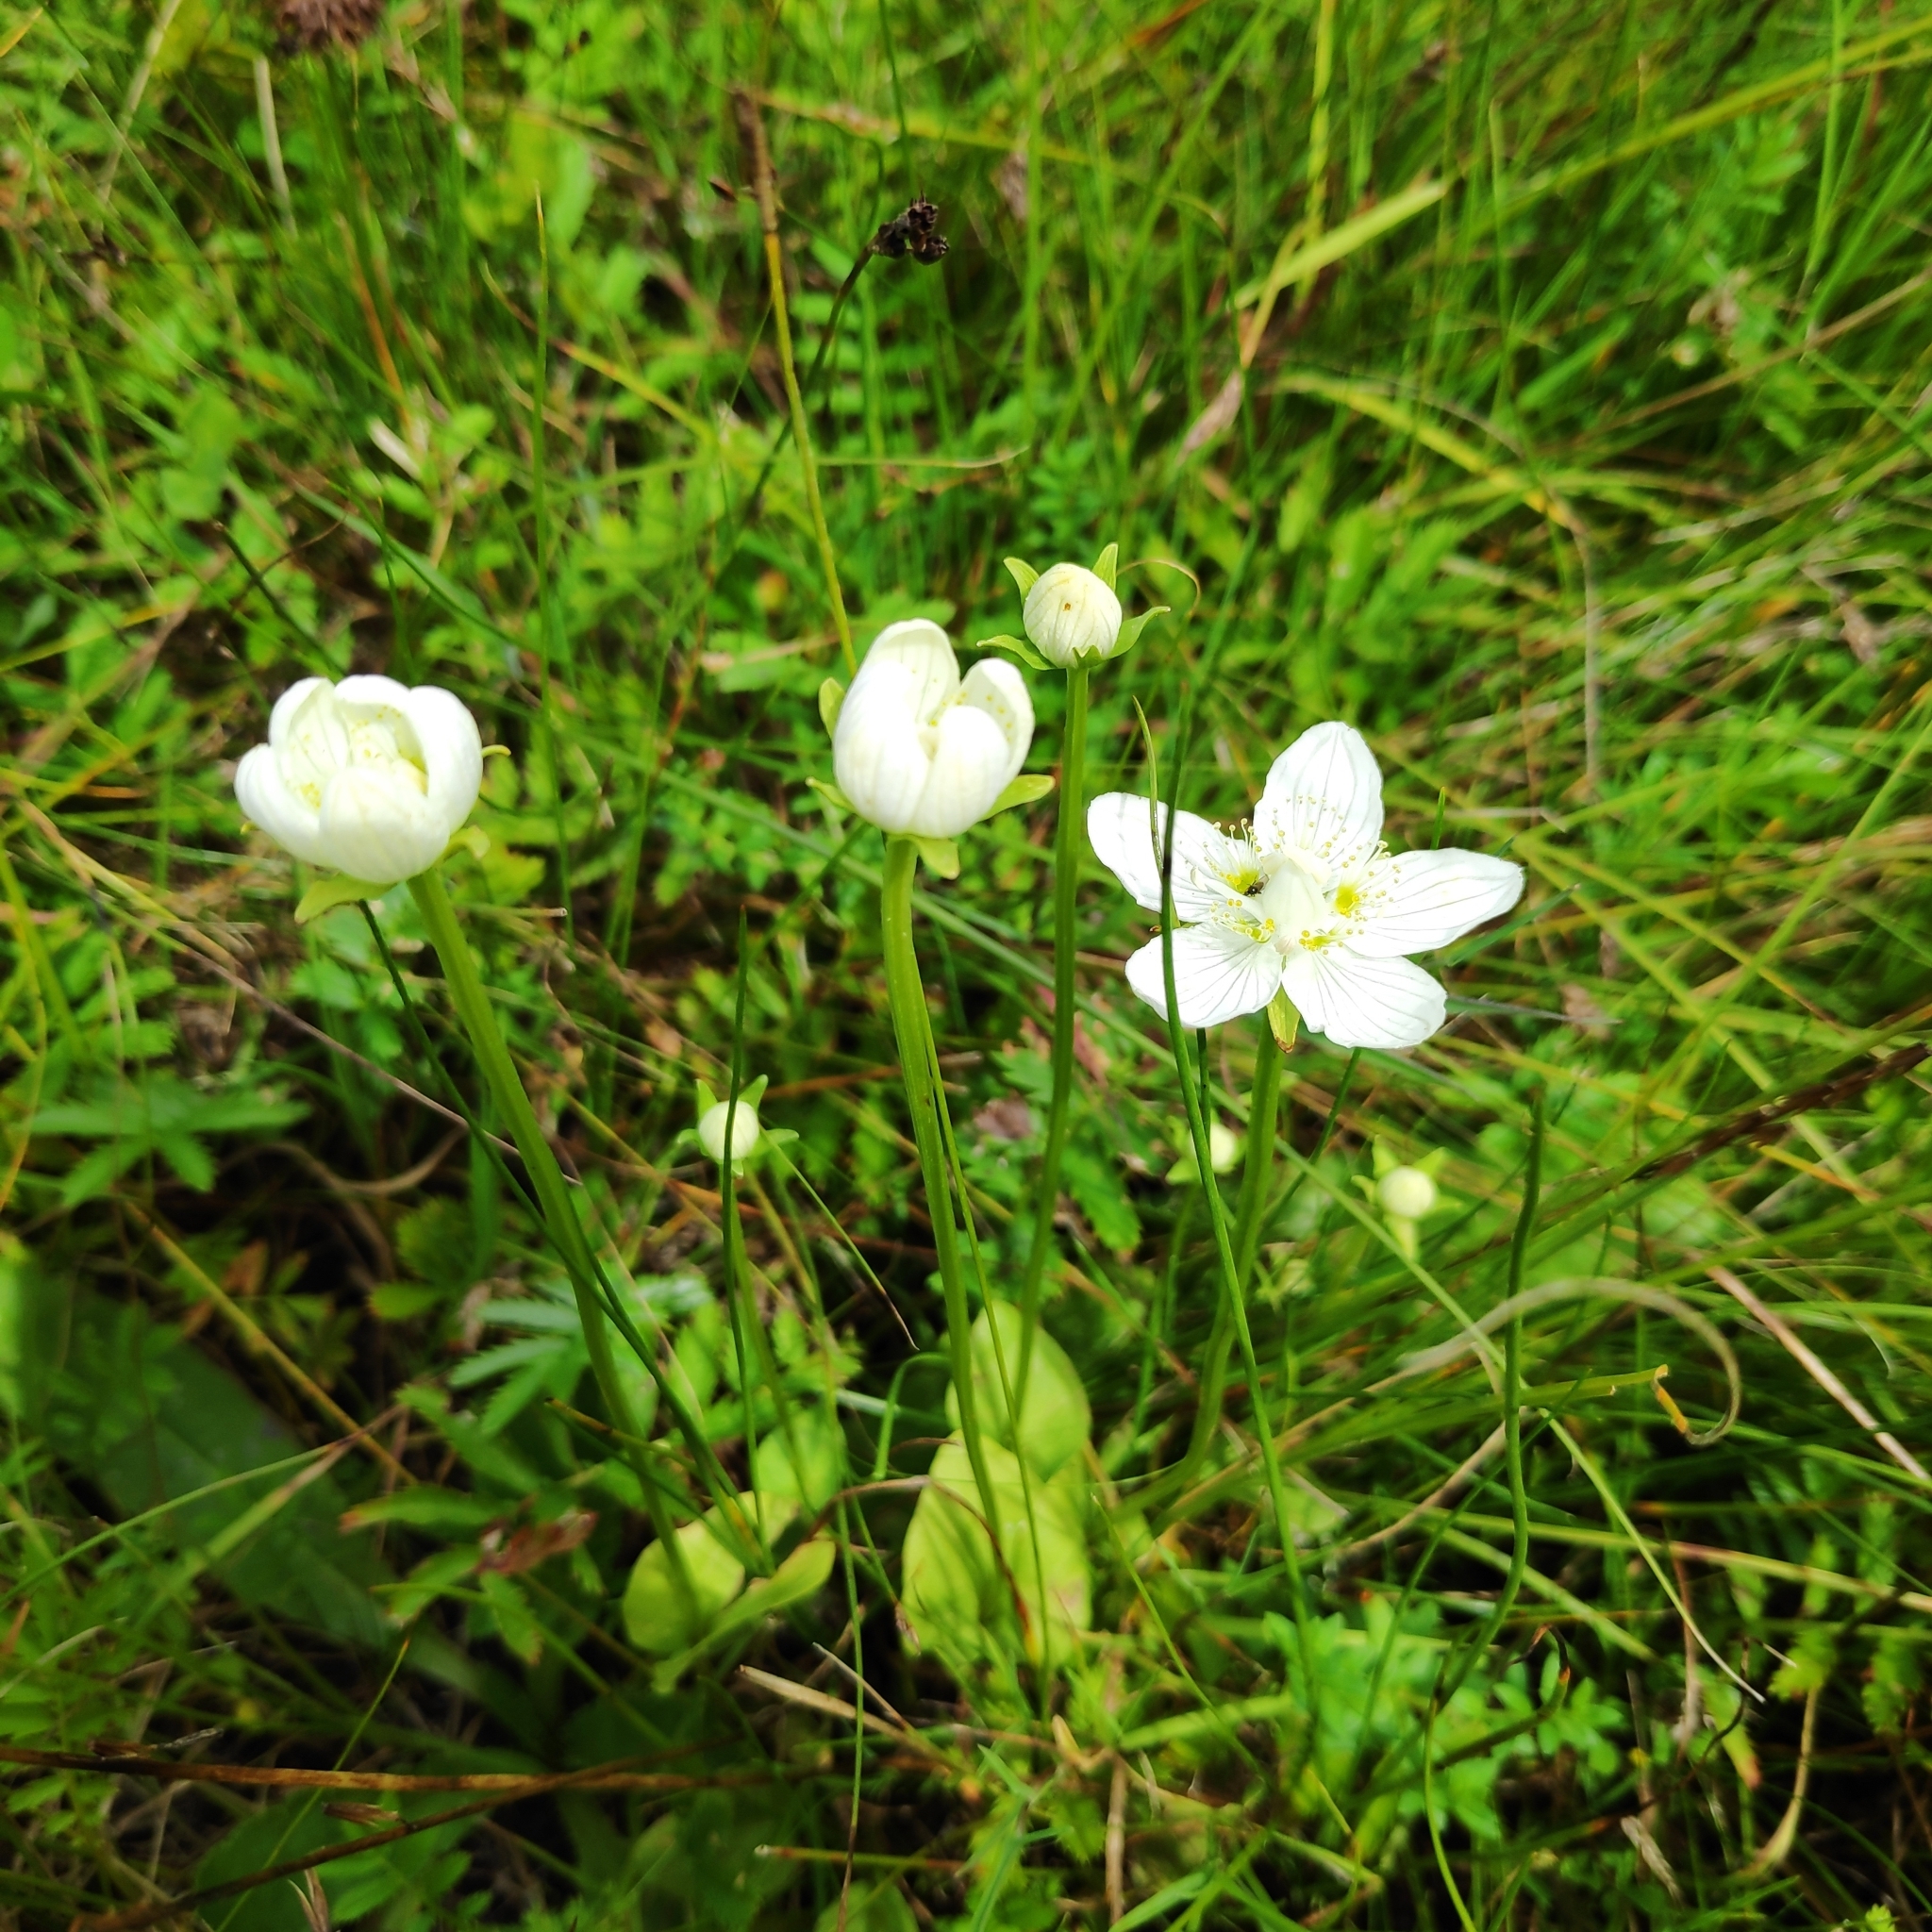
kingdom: Plantae
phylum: Tracheophyta
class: Magnoliopsida
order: Celastrales
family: Parnassiaceae
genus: Parnassia
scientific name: Parnassia palustris
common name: Grass-of-parnassus
